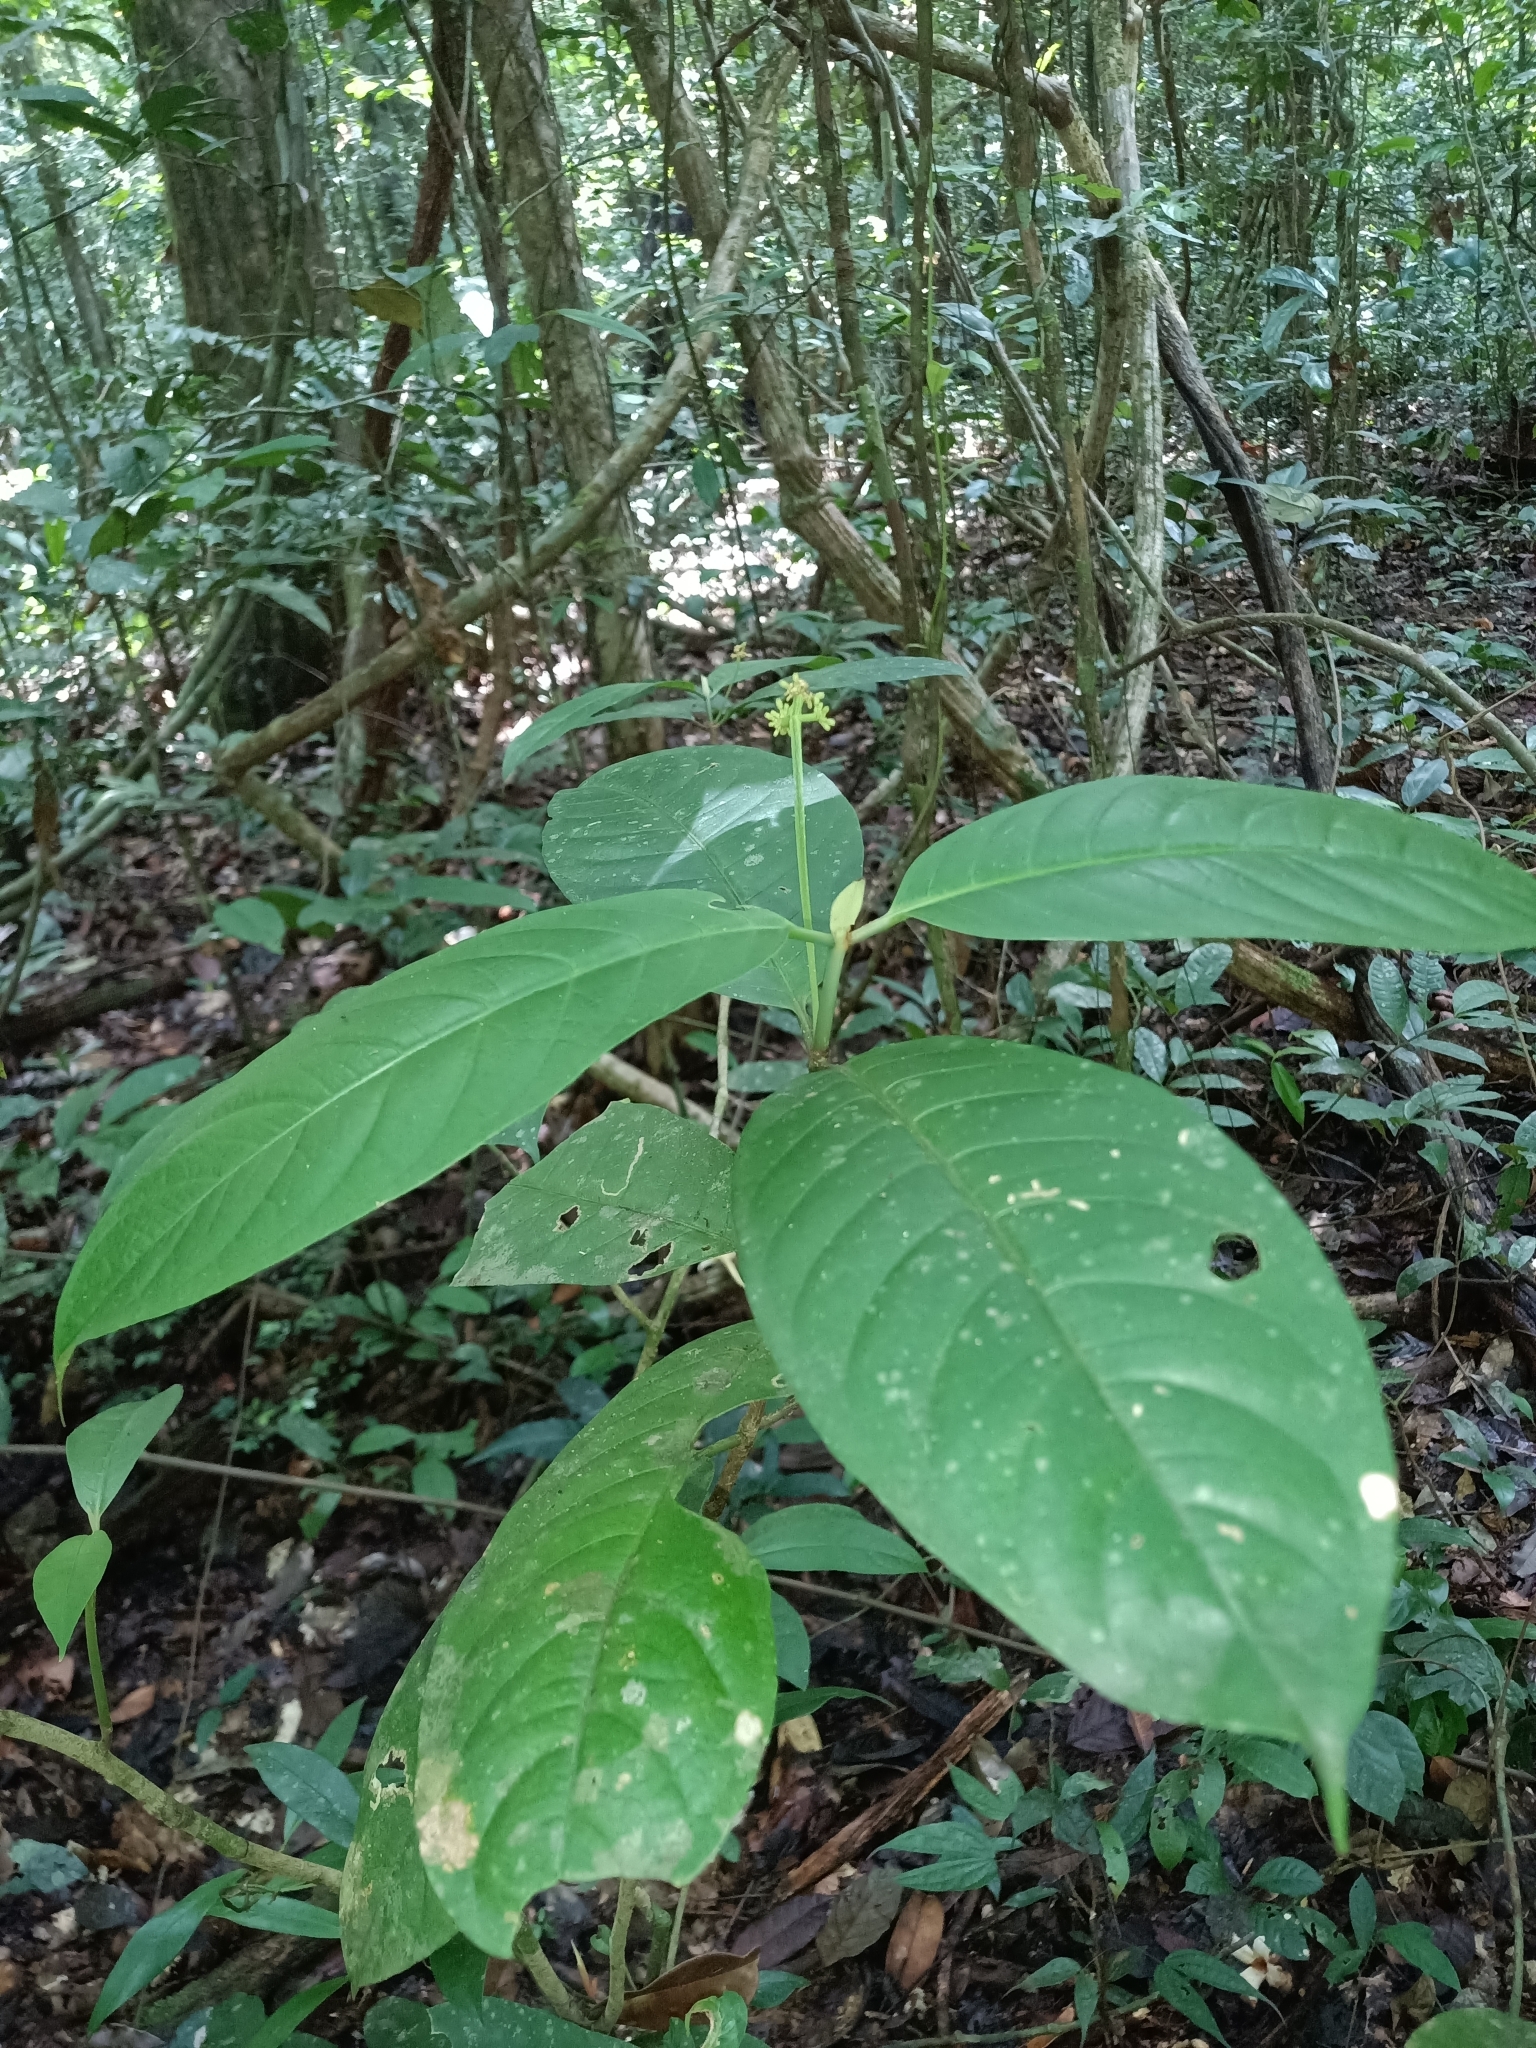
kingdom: Plantae
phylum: Tracheophyta
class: Magnoliopsida
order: Gentianales
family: Rubiaceae
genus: Rudgea
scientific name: Rudgea stipulacea
